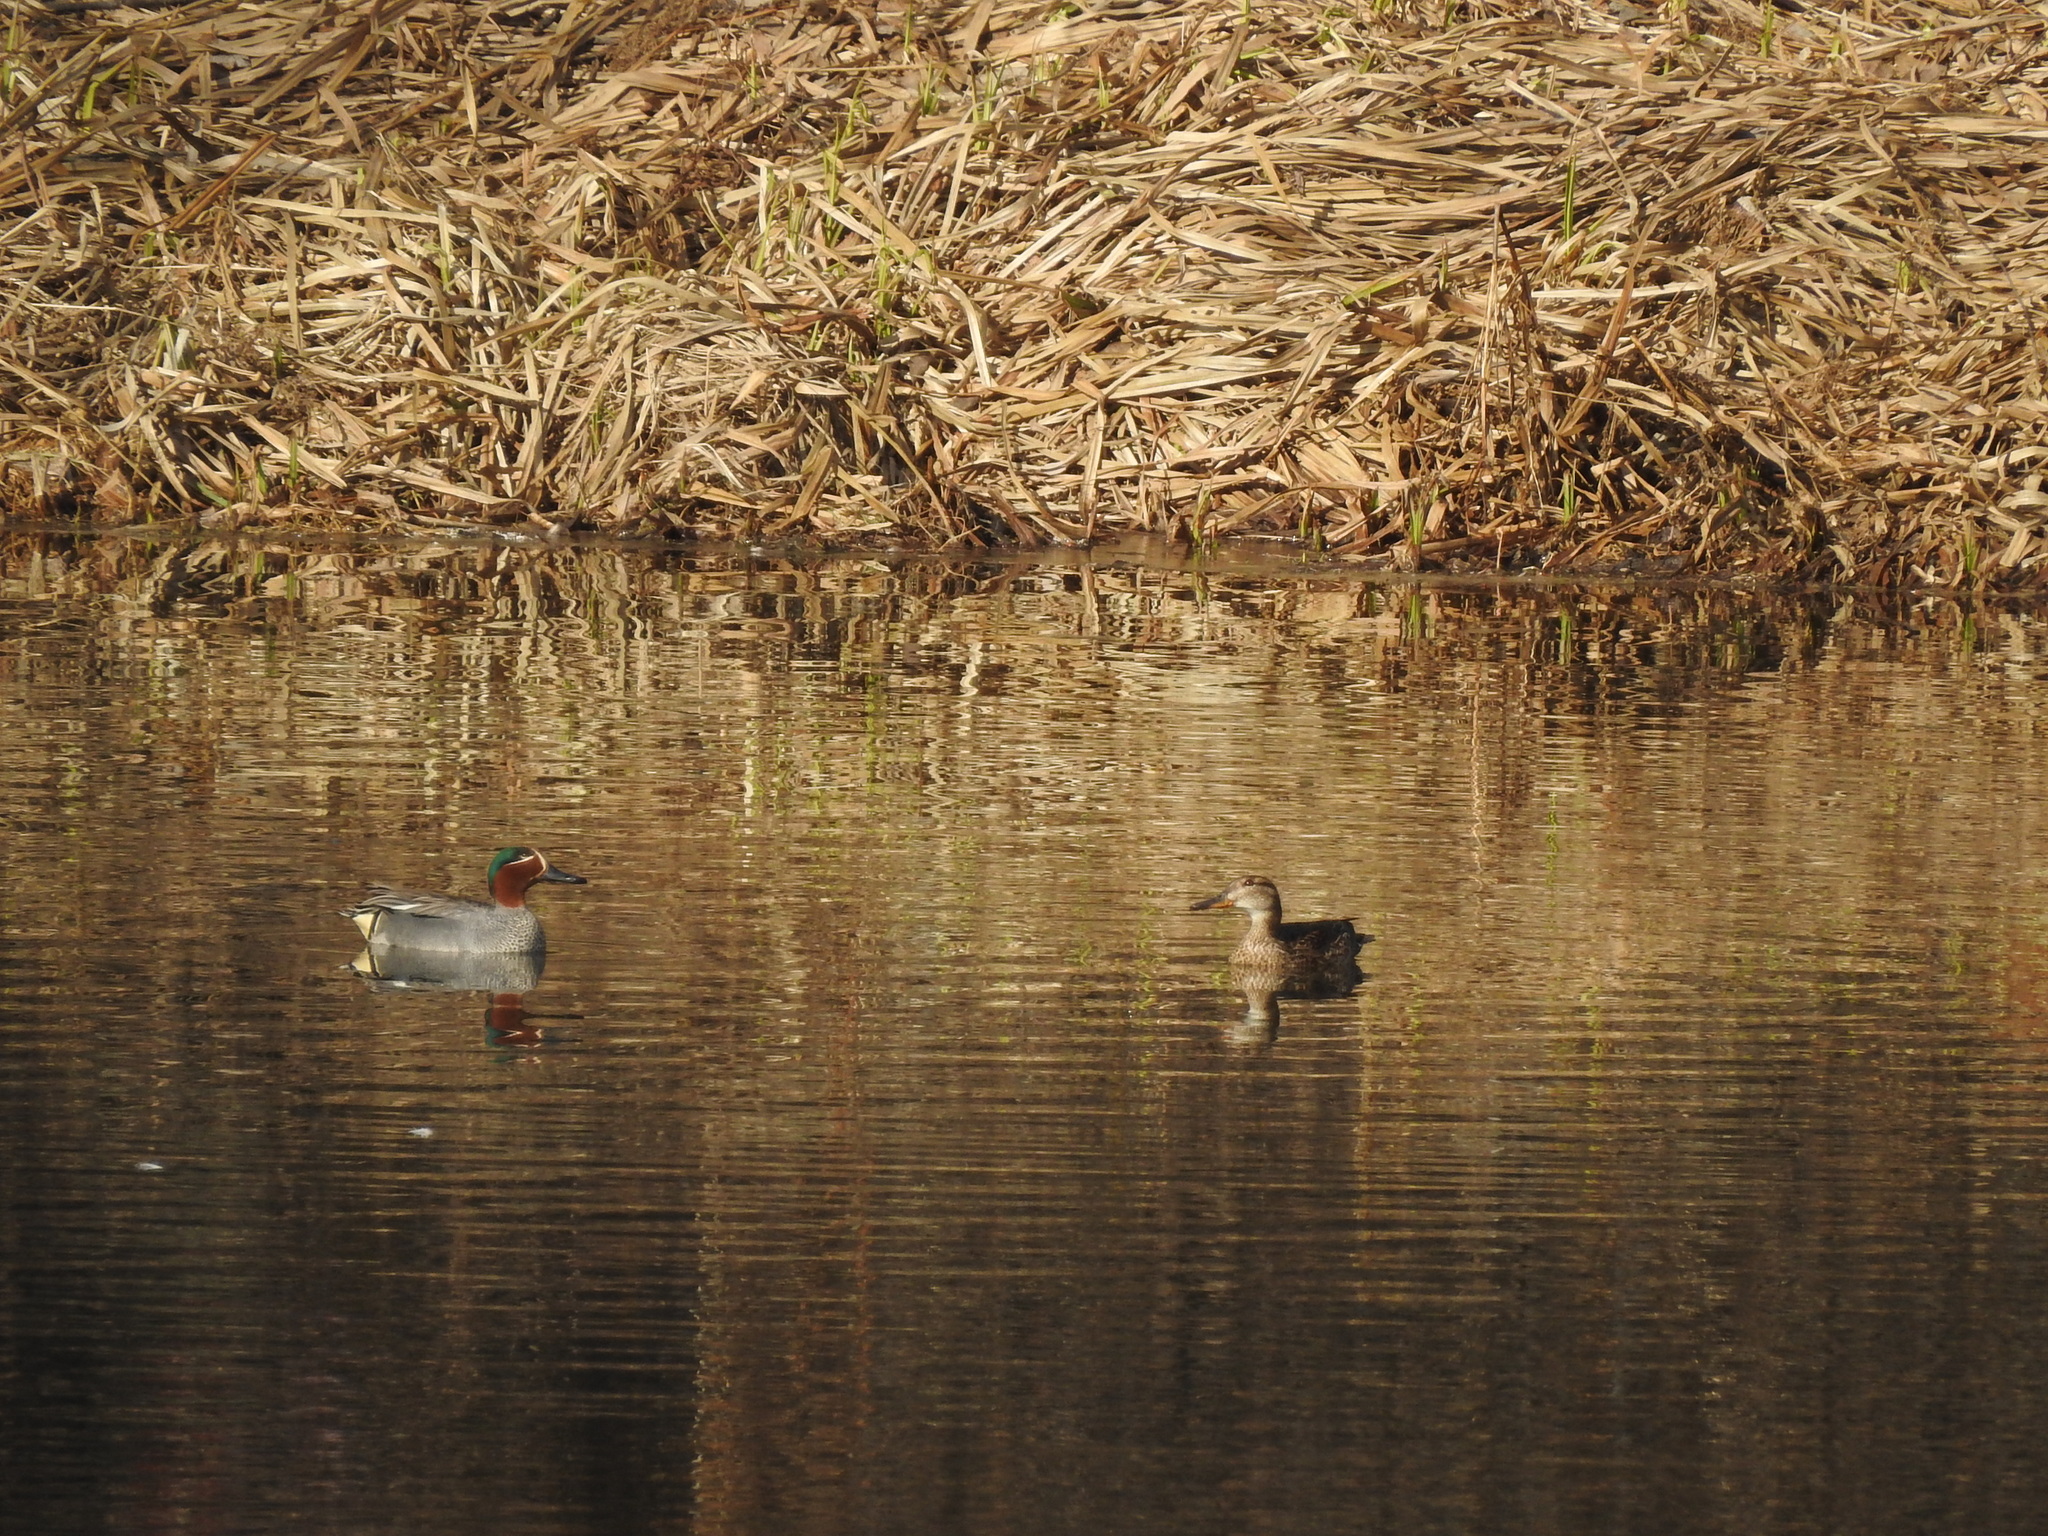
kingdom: Animalia
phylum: Chordata
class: Aves
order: Anseriformes
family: Anatidae
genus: Anas
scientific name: Anas crecca
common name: Eurasian teal
